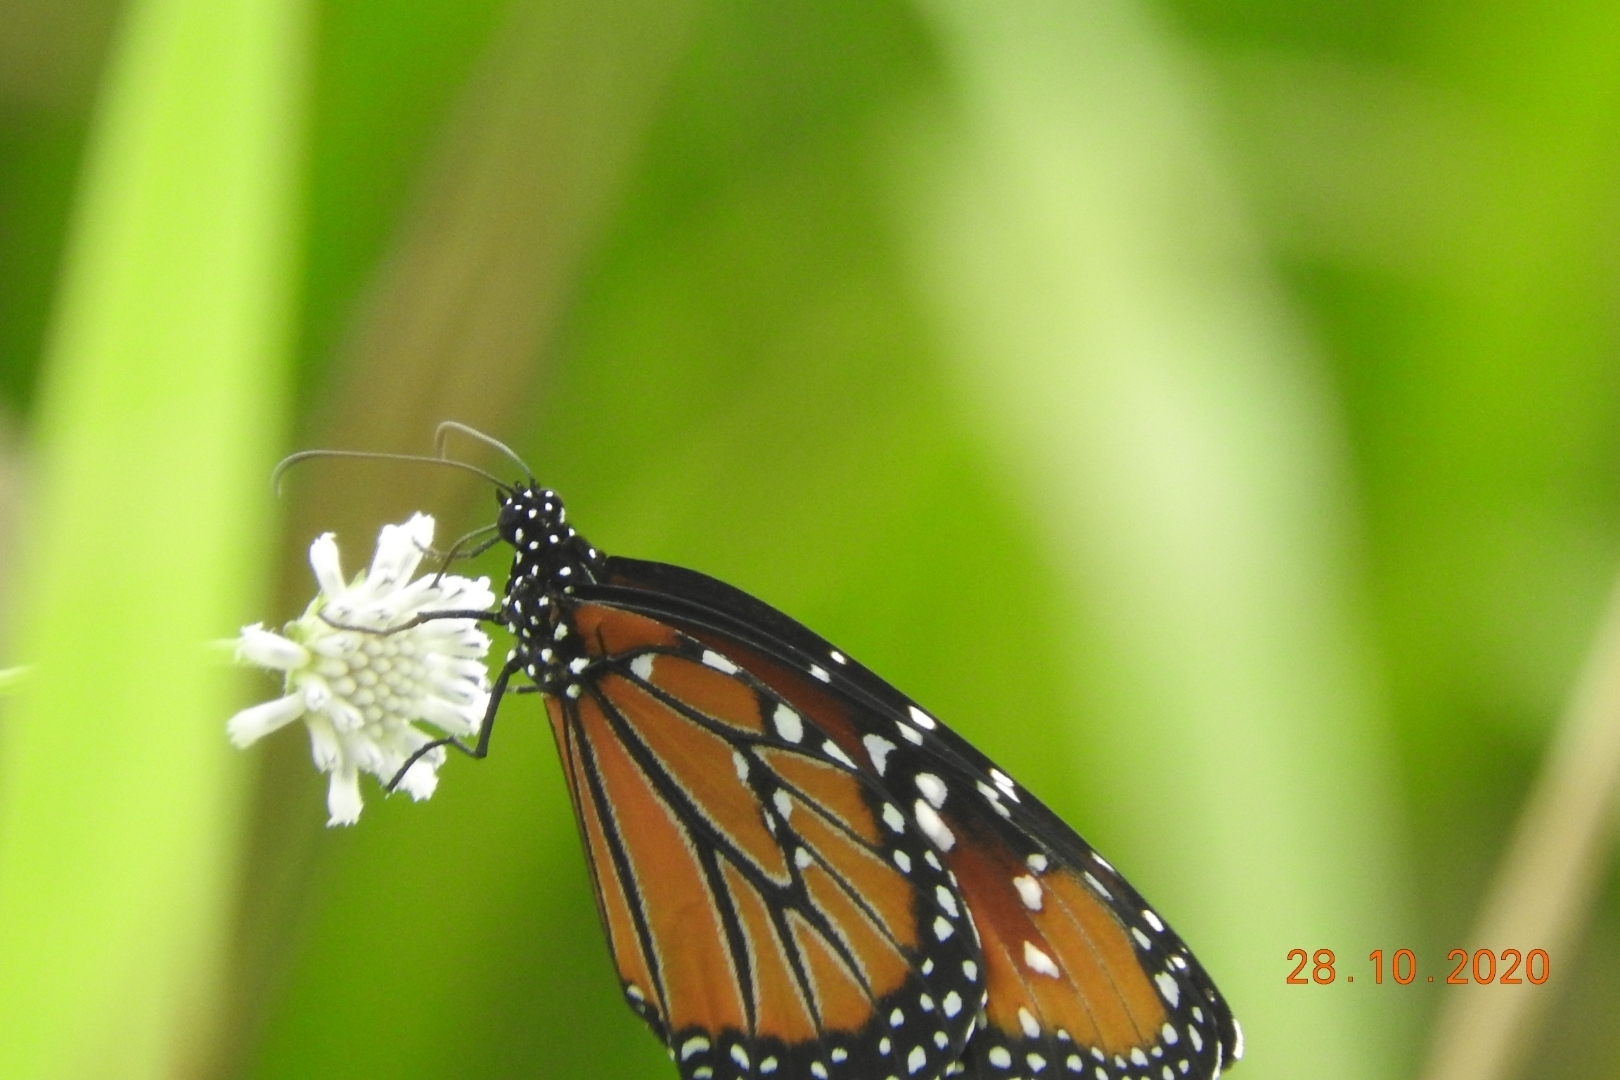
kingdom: Animalia
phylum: Arthropoda
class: Insecta
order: Lepidoptera
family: Nymphalidae
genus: Danaus
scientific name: Danaus gilippus
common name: Queen
